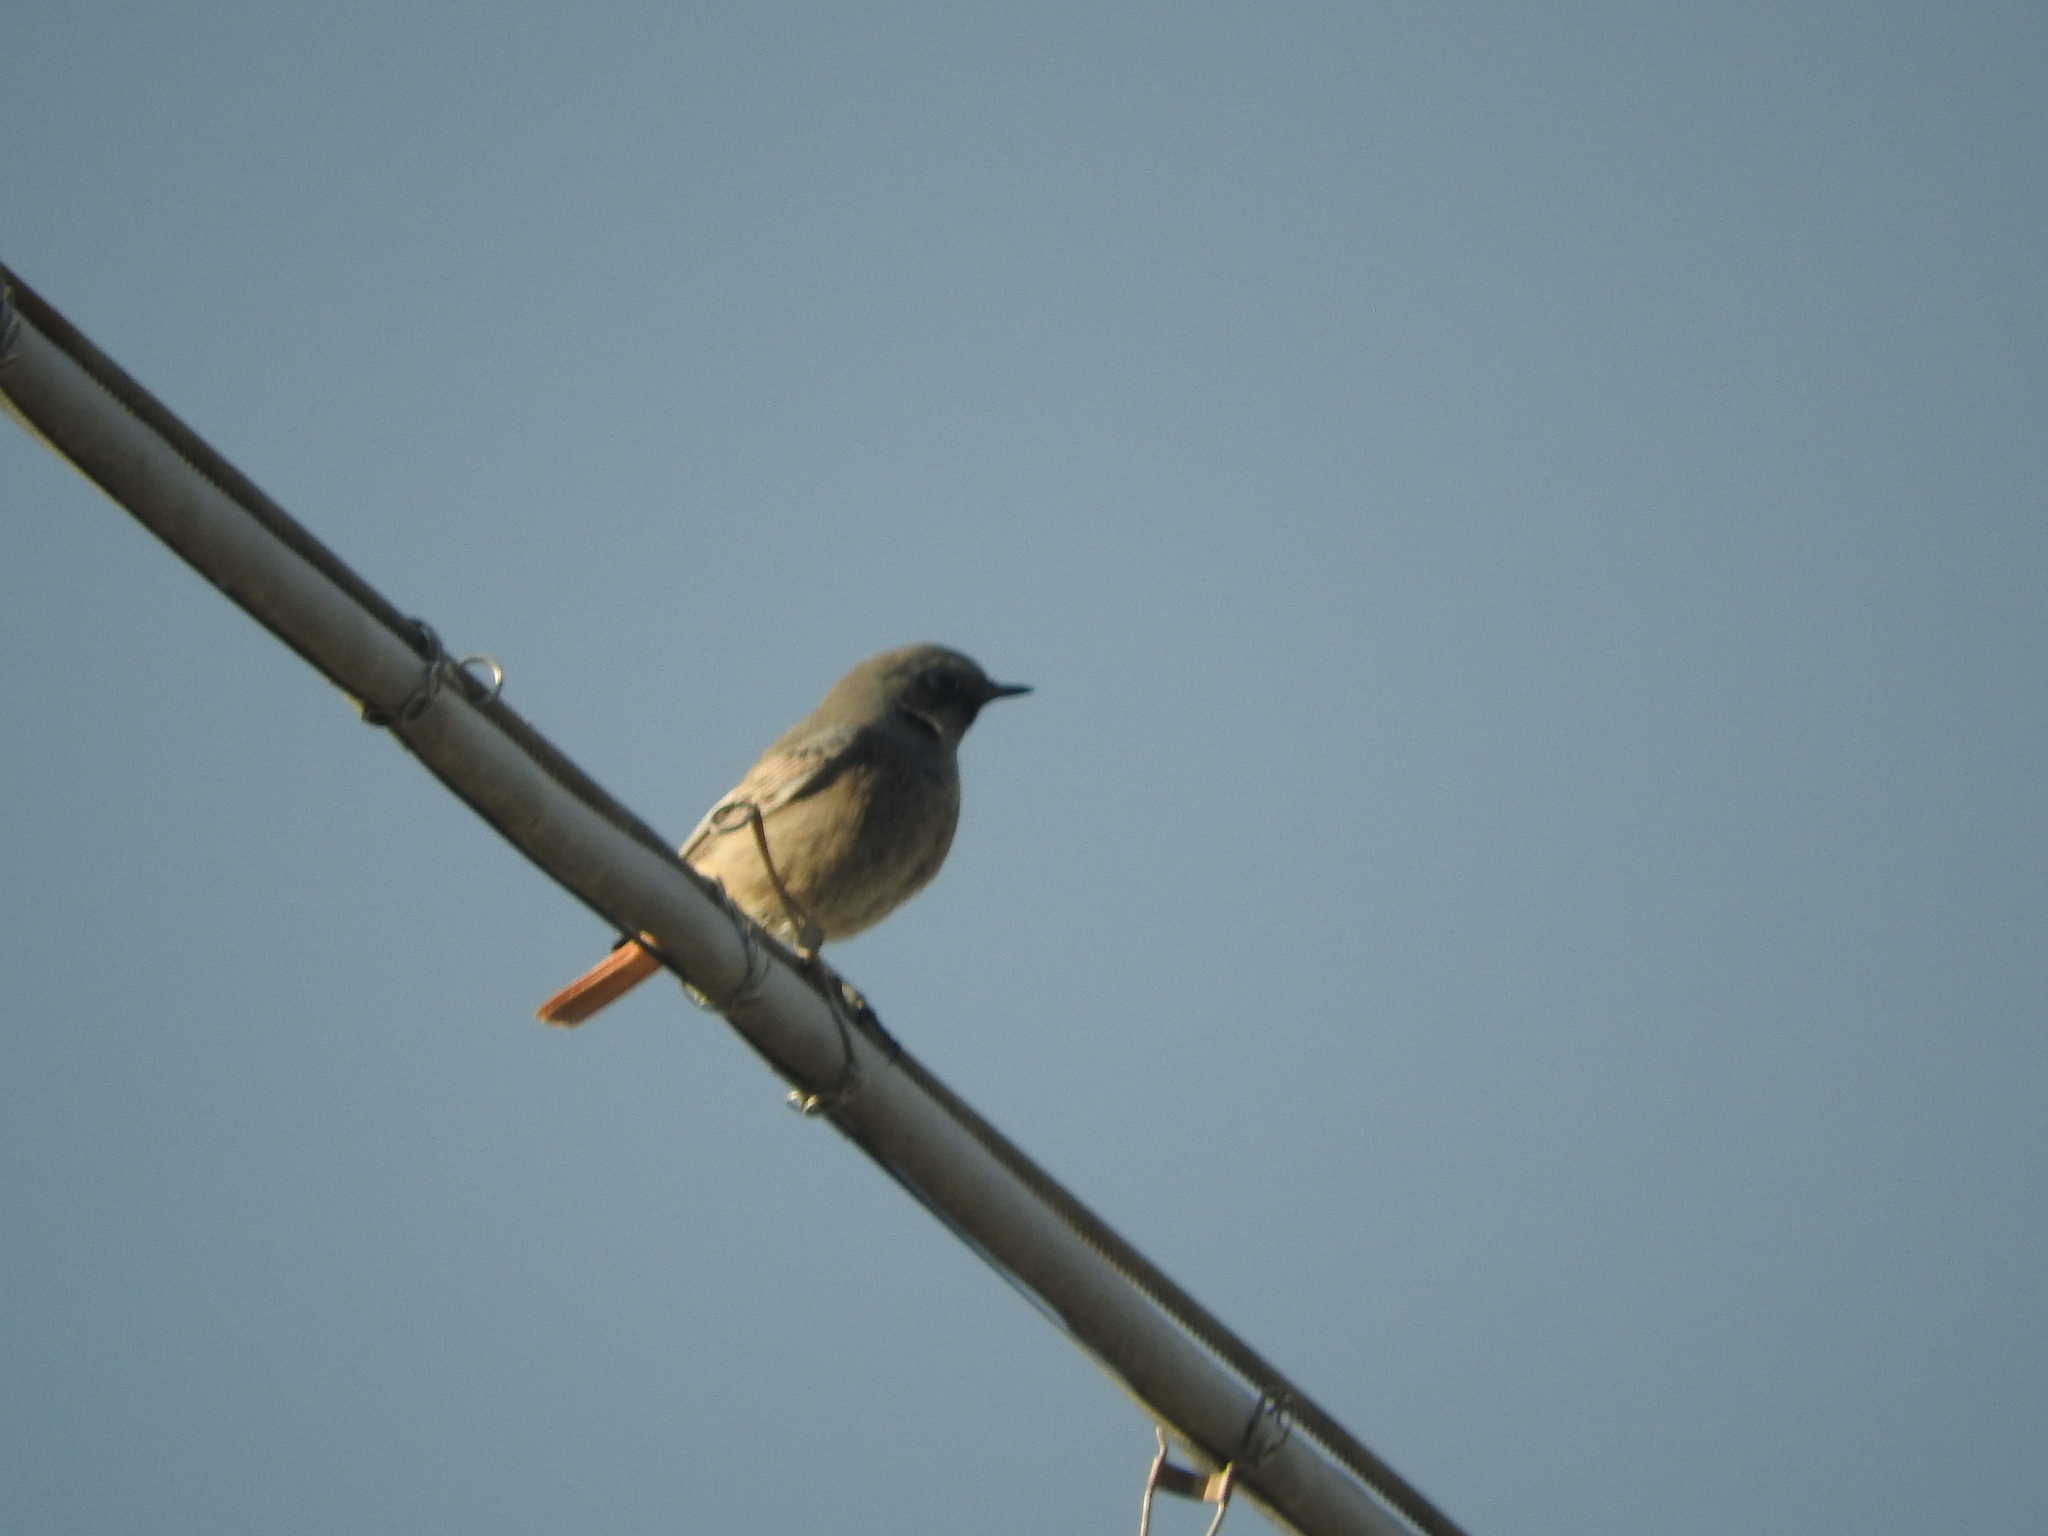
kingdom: Animalia
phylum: Chordata
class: Aves
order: Passeriformes
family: Muscicapidae
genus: Phoenicurus
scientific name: Phoenicurus ochruros
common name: Black redstart
